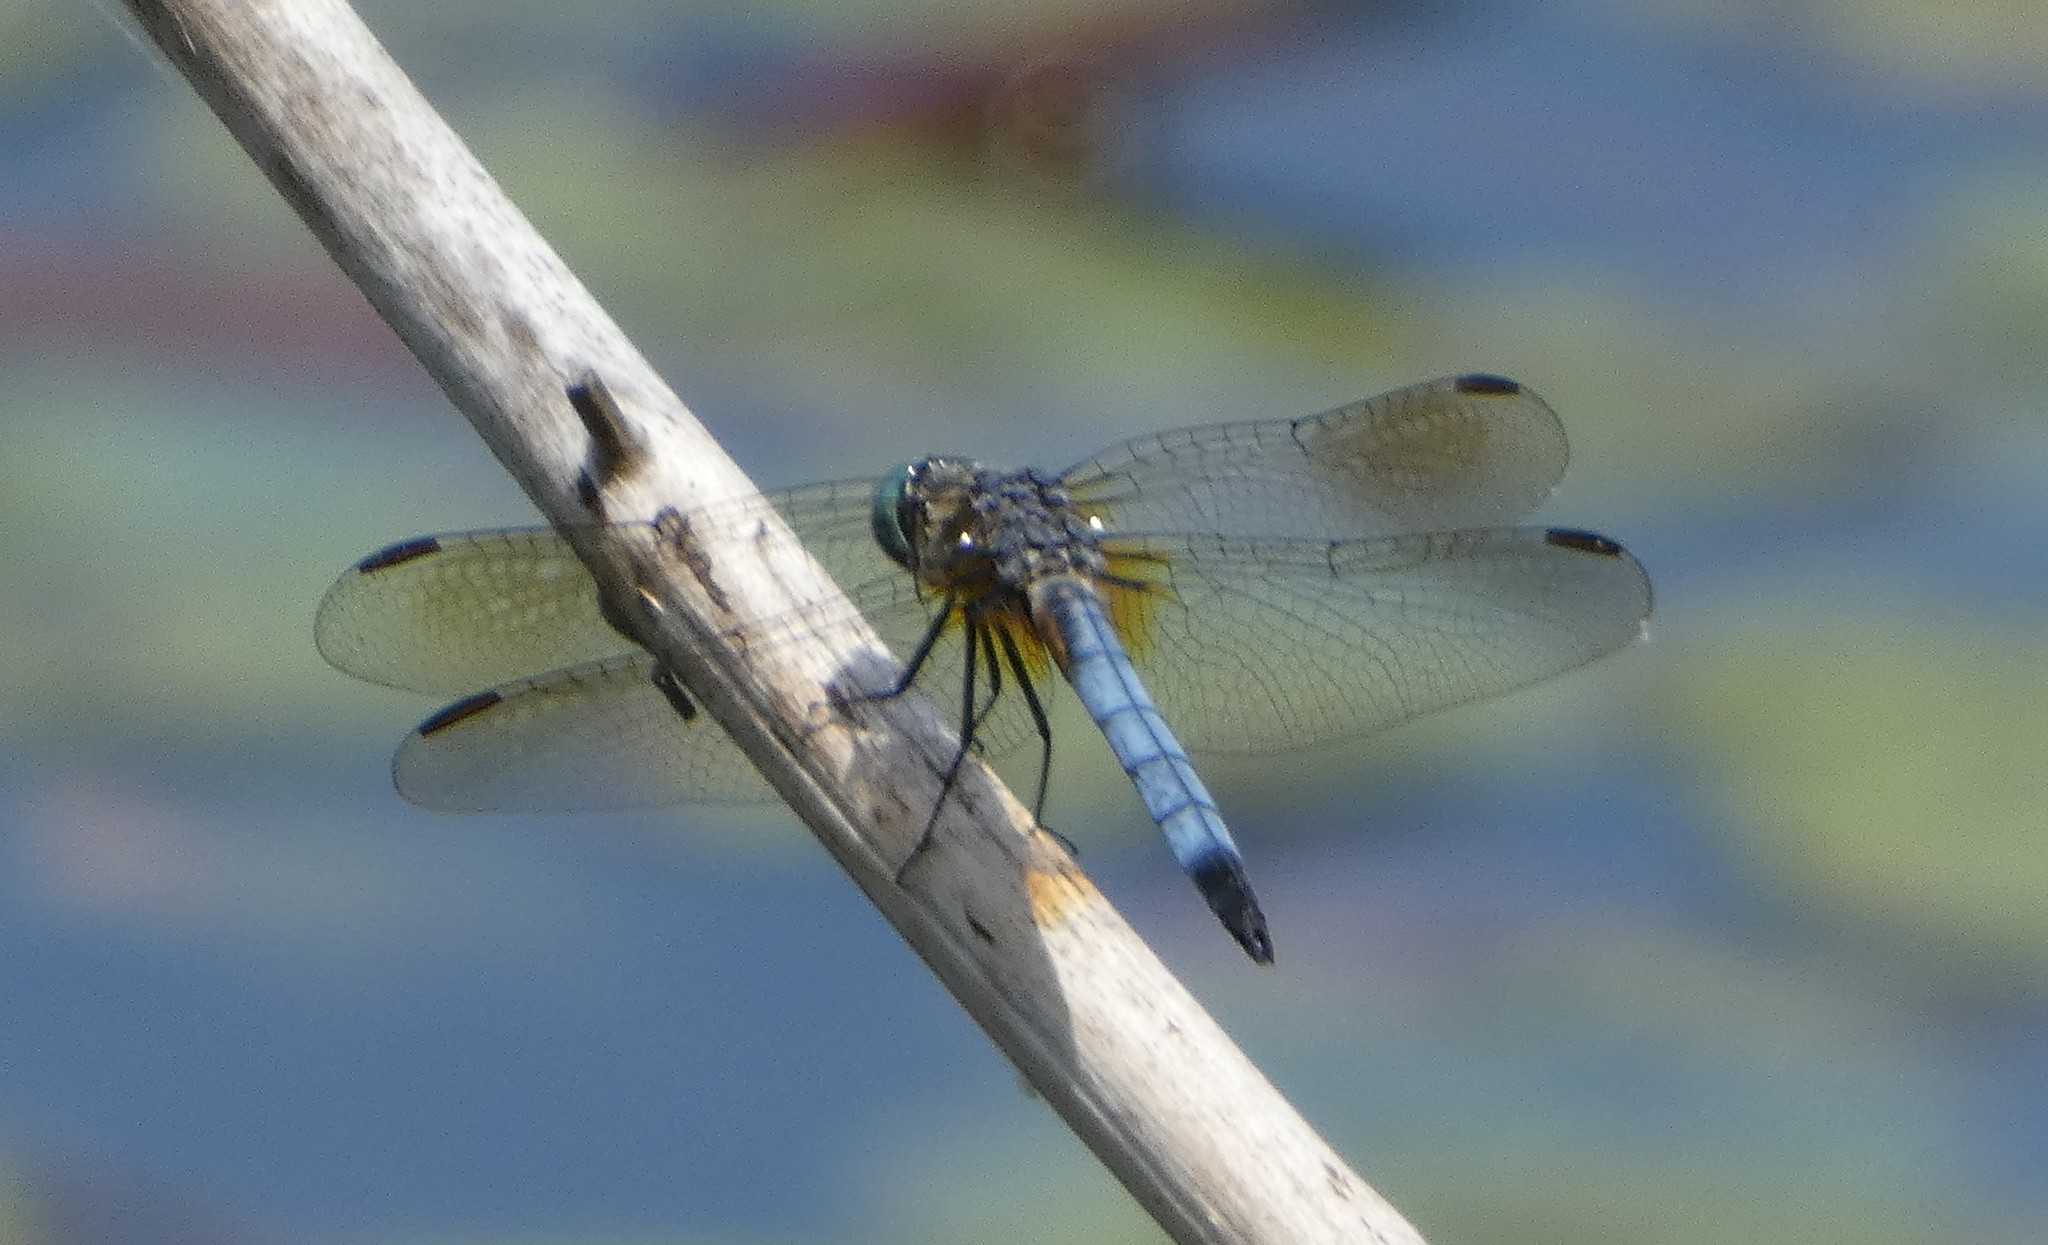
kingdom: Animalia
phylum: Arthropoda
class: Insecta
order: Odonata
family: Libellulidae
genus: Pachydiplax
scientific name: Pachydiplax longipennis
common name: Blue dasher
